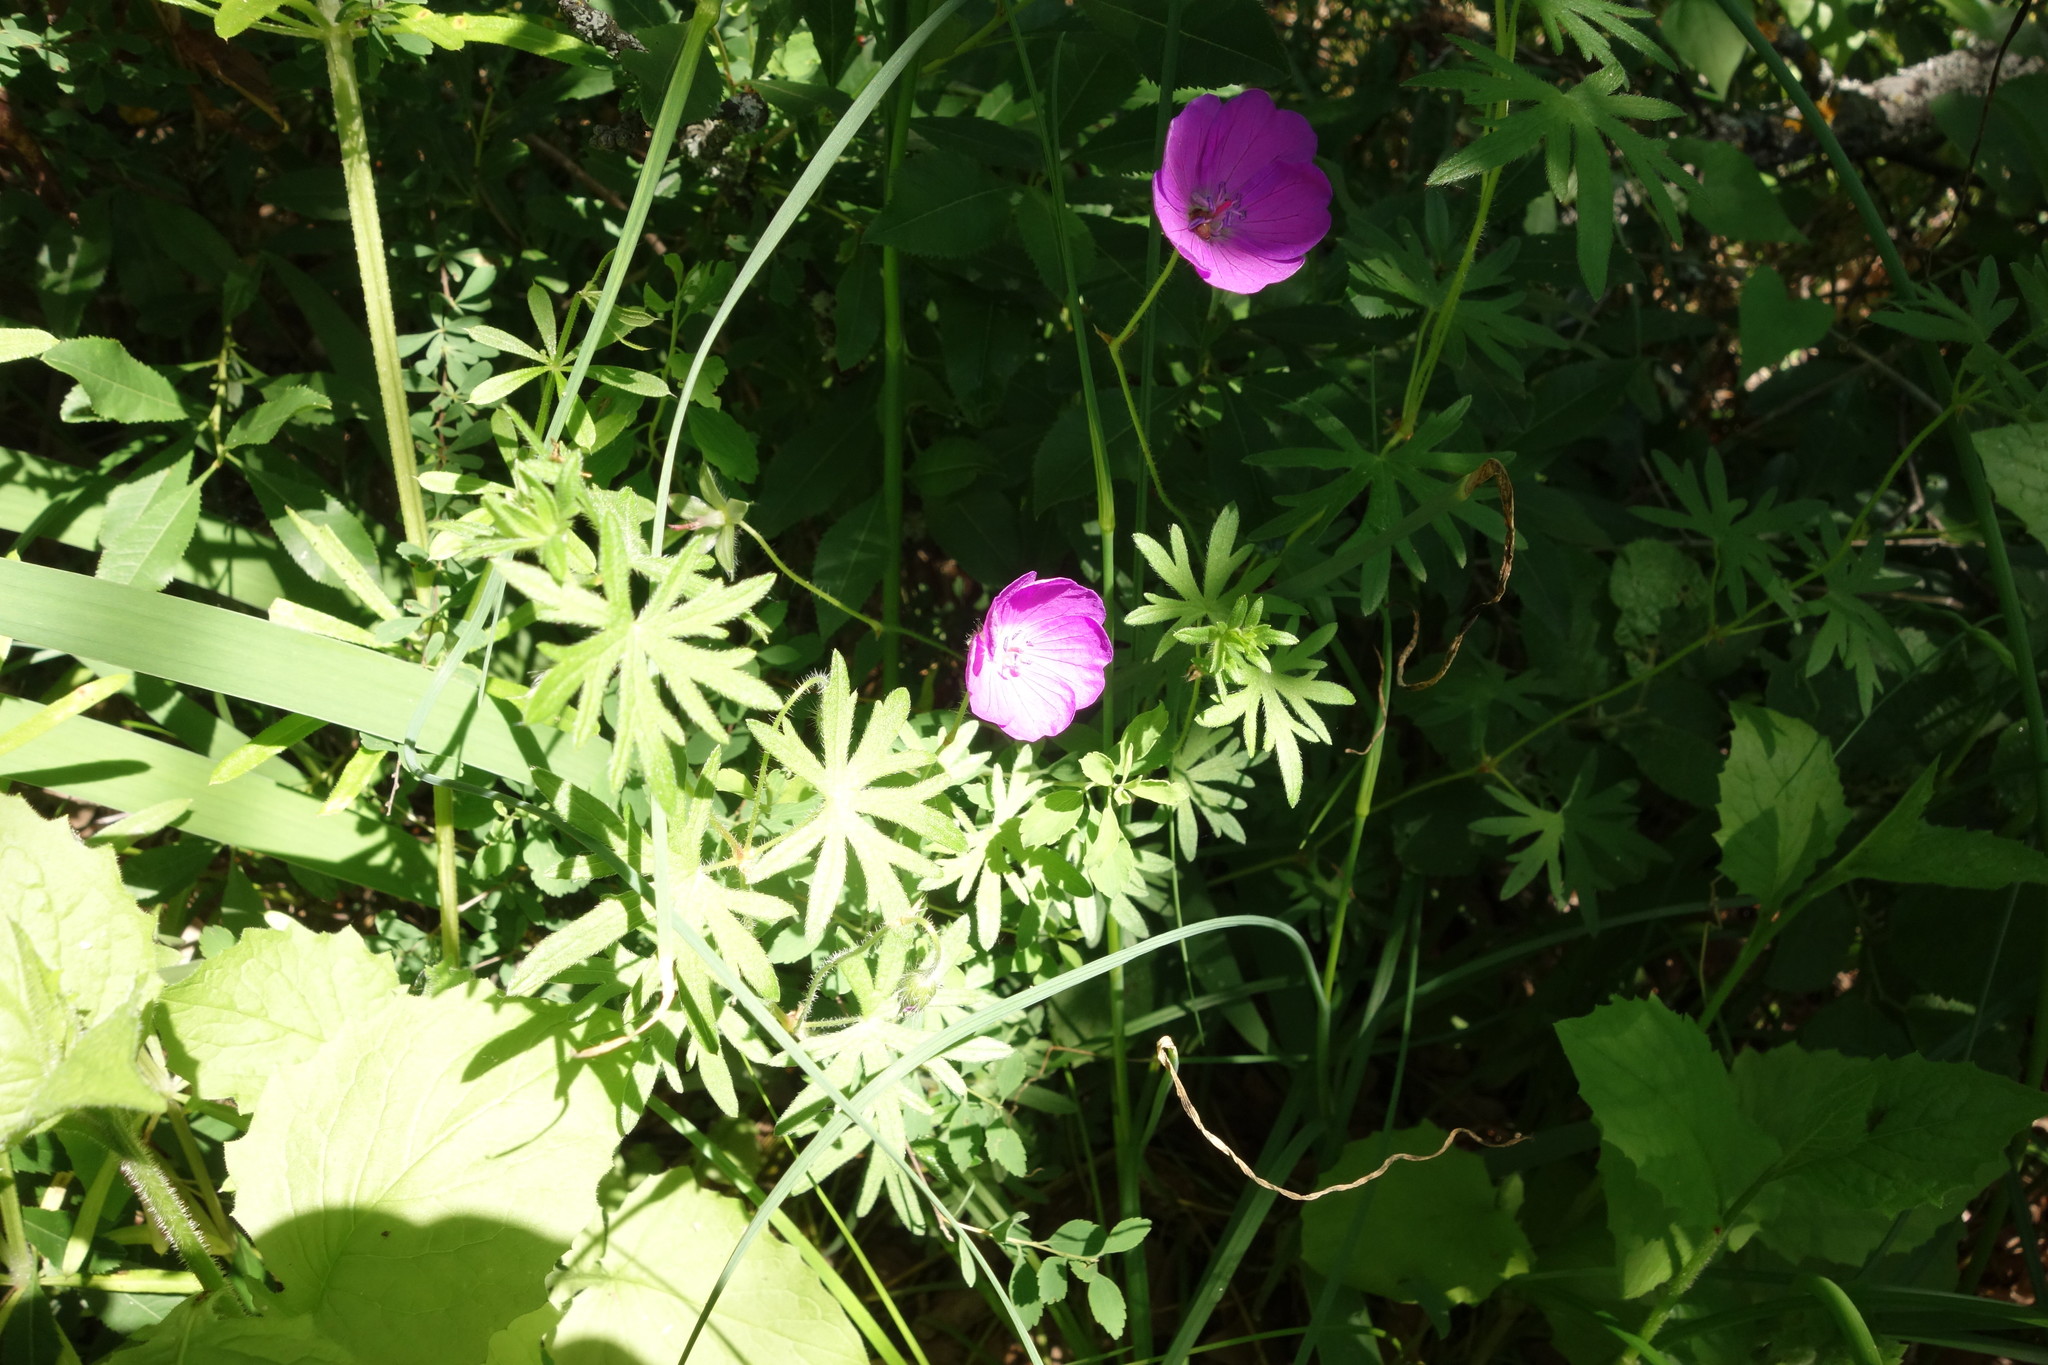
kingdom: Plantae
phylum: Tracheophyta
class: Magnoliopsida
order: Geraniales
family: Geraniaceae
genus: Geranium
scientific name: Geranium sanguineum
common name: Bloody crane's-bill
